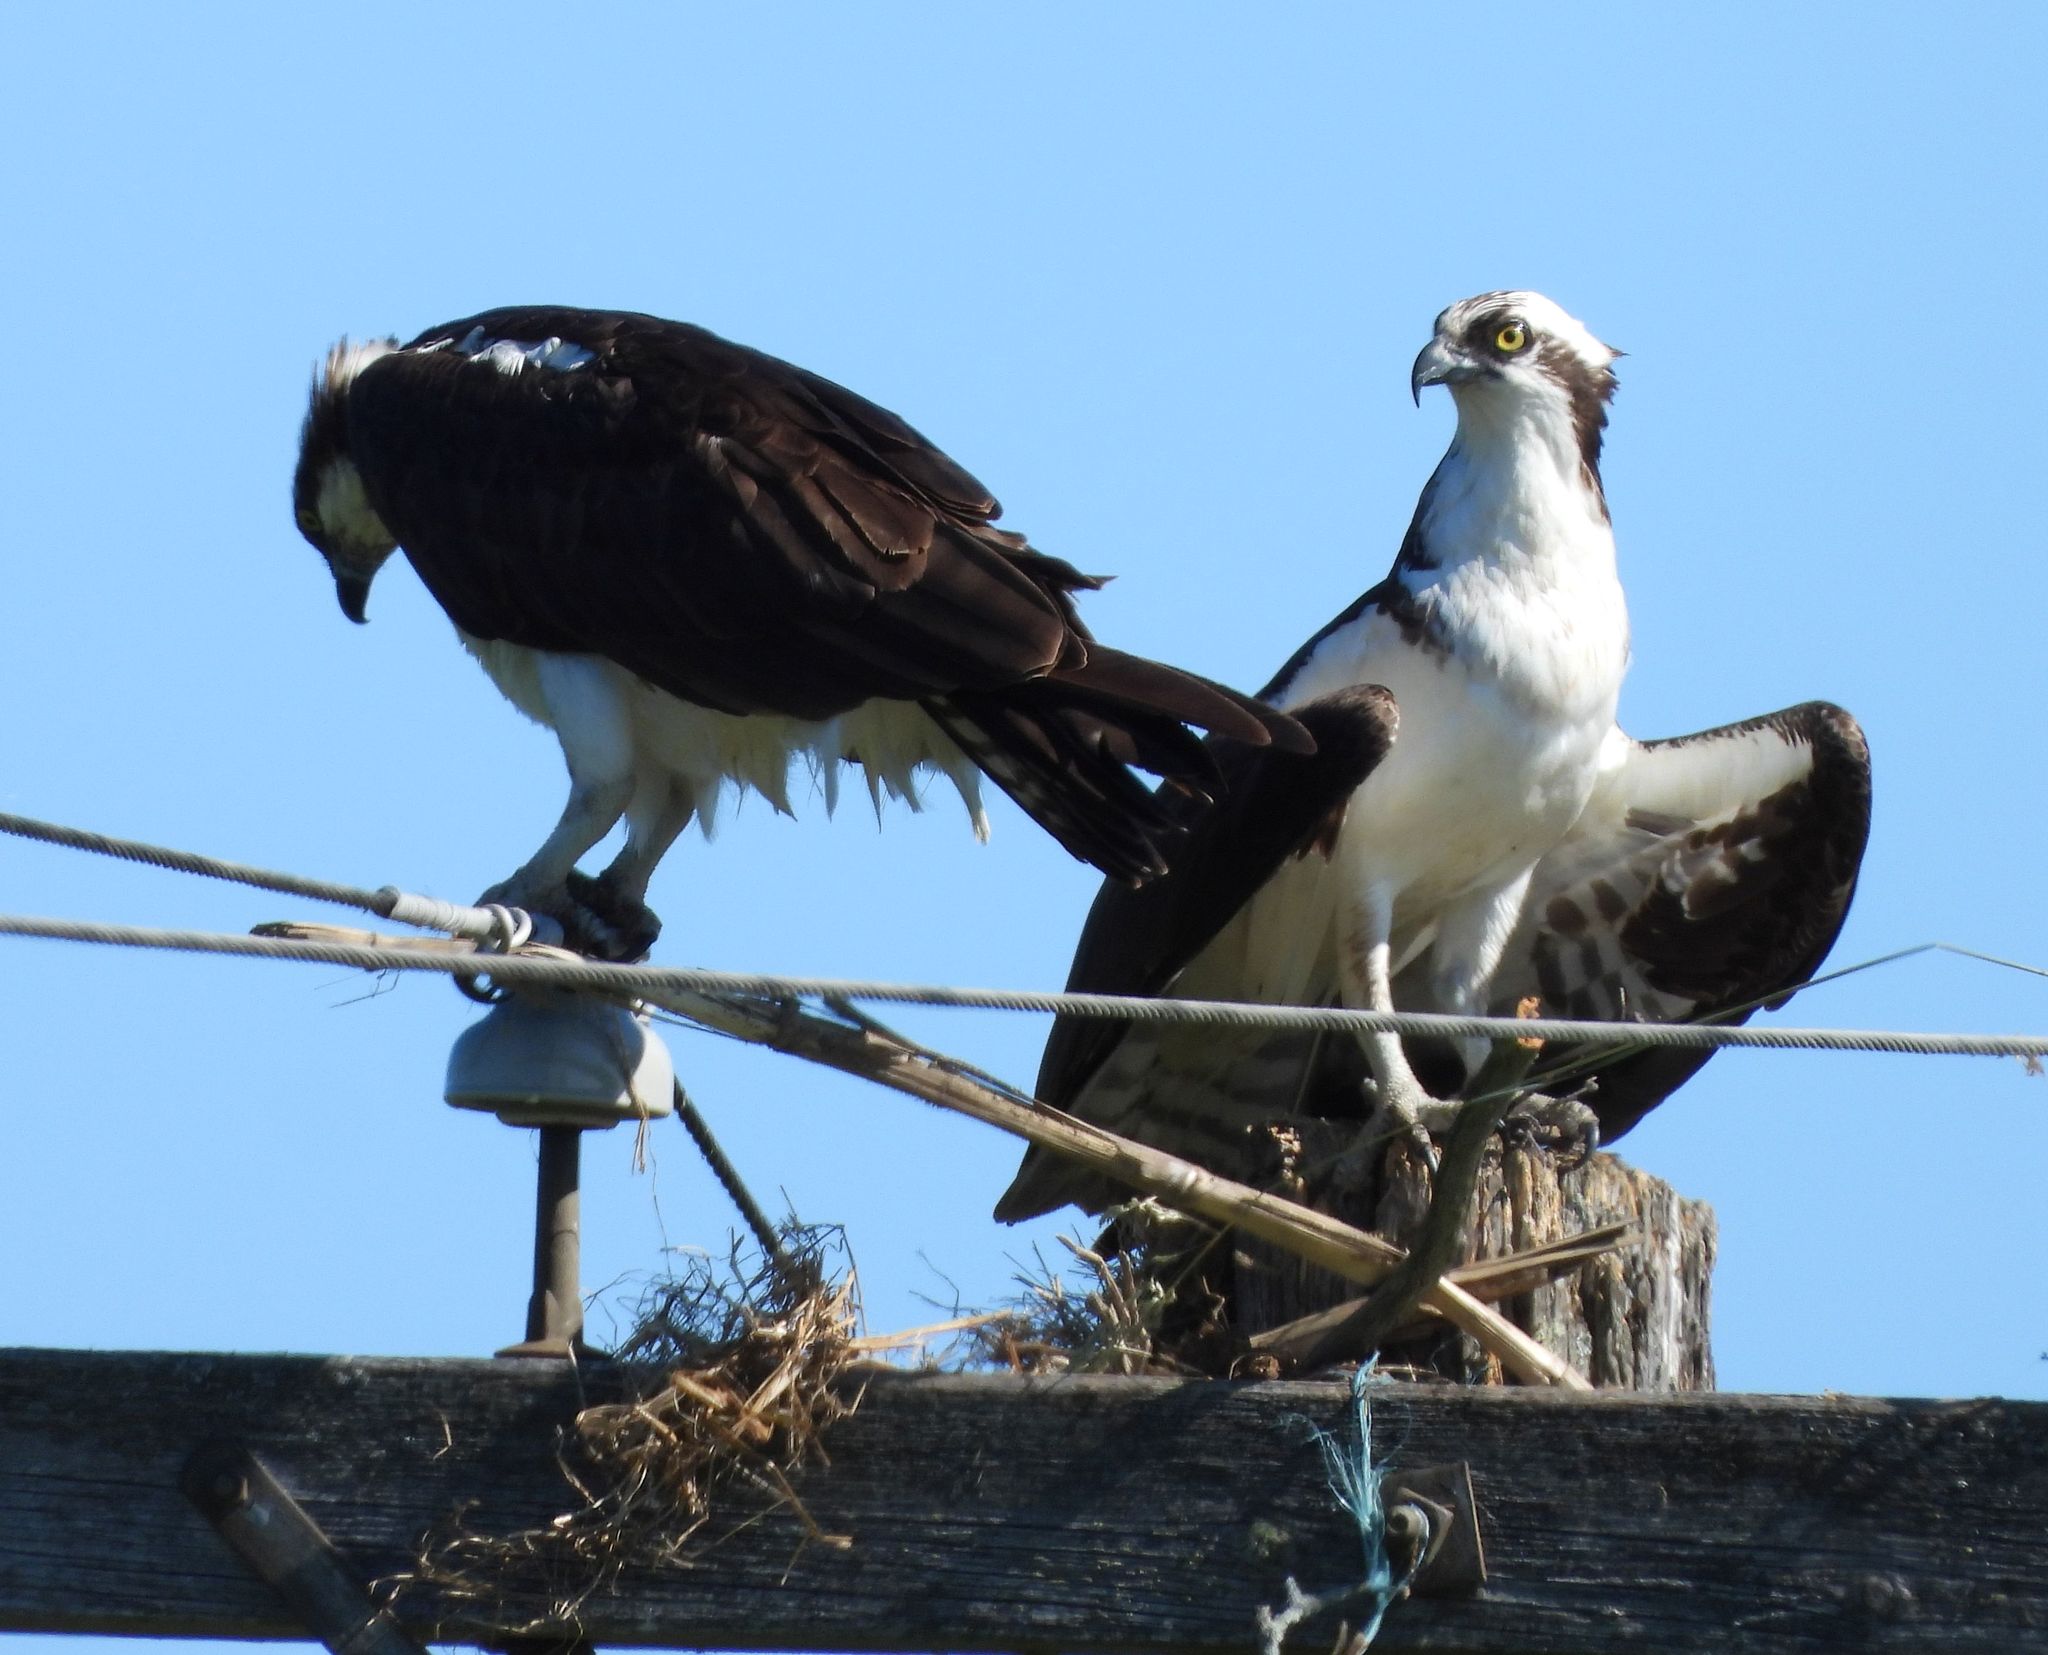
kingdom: Animalia
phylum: Chordata
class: Aves
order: Accipitriformes
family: Pandionidae
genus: Pandion
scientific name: Pandion haliaetus
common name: Osprey
